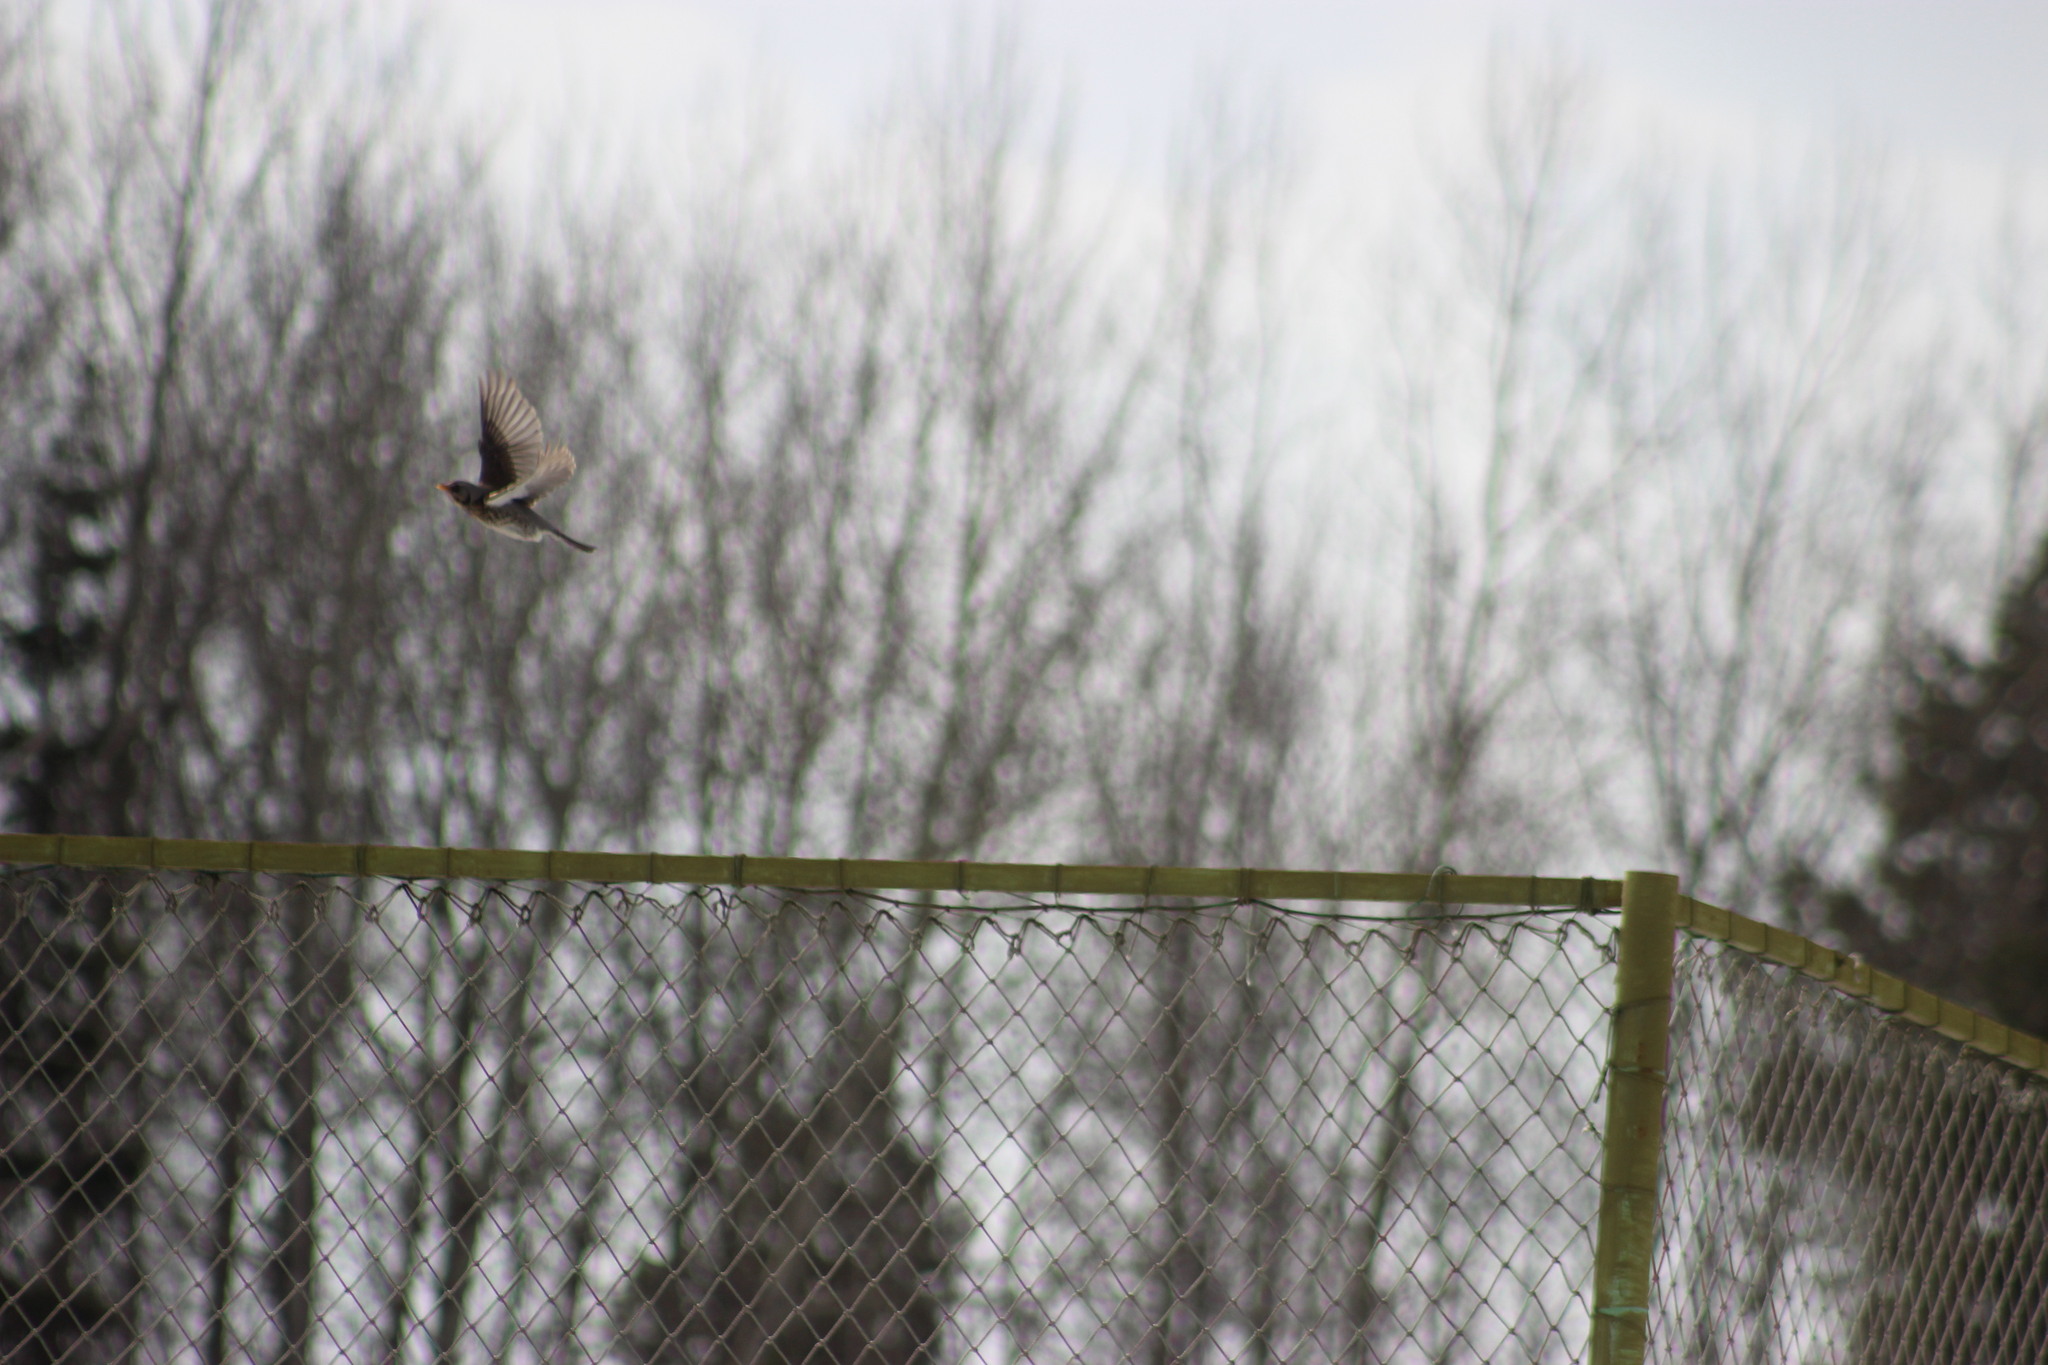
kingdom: Animalia
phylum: Chordata
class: Aves
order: Passeriformes
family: Turdidae
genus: Turdus
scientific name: Turdus pilaris
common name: Fieldfare
